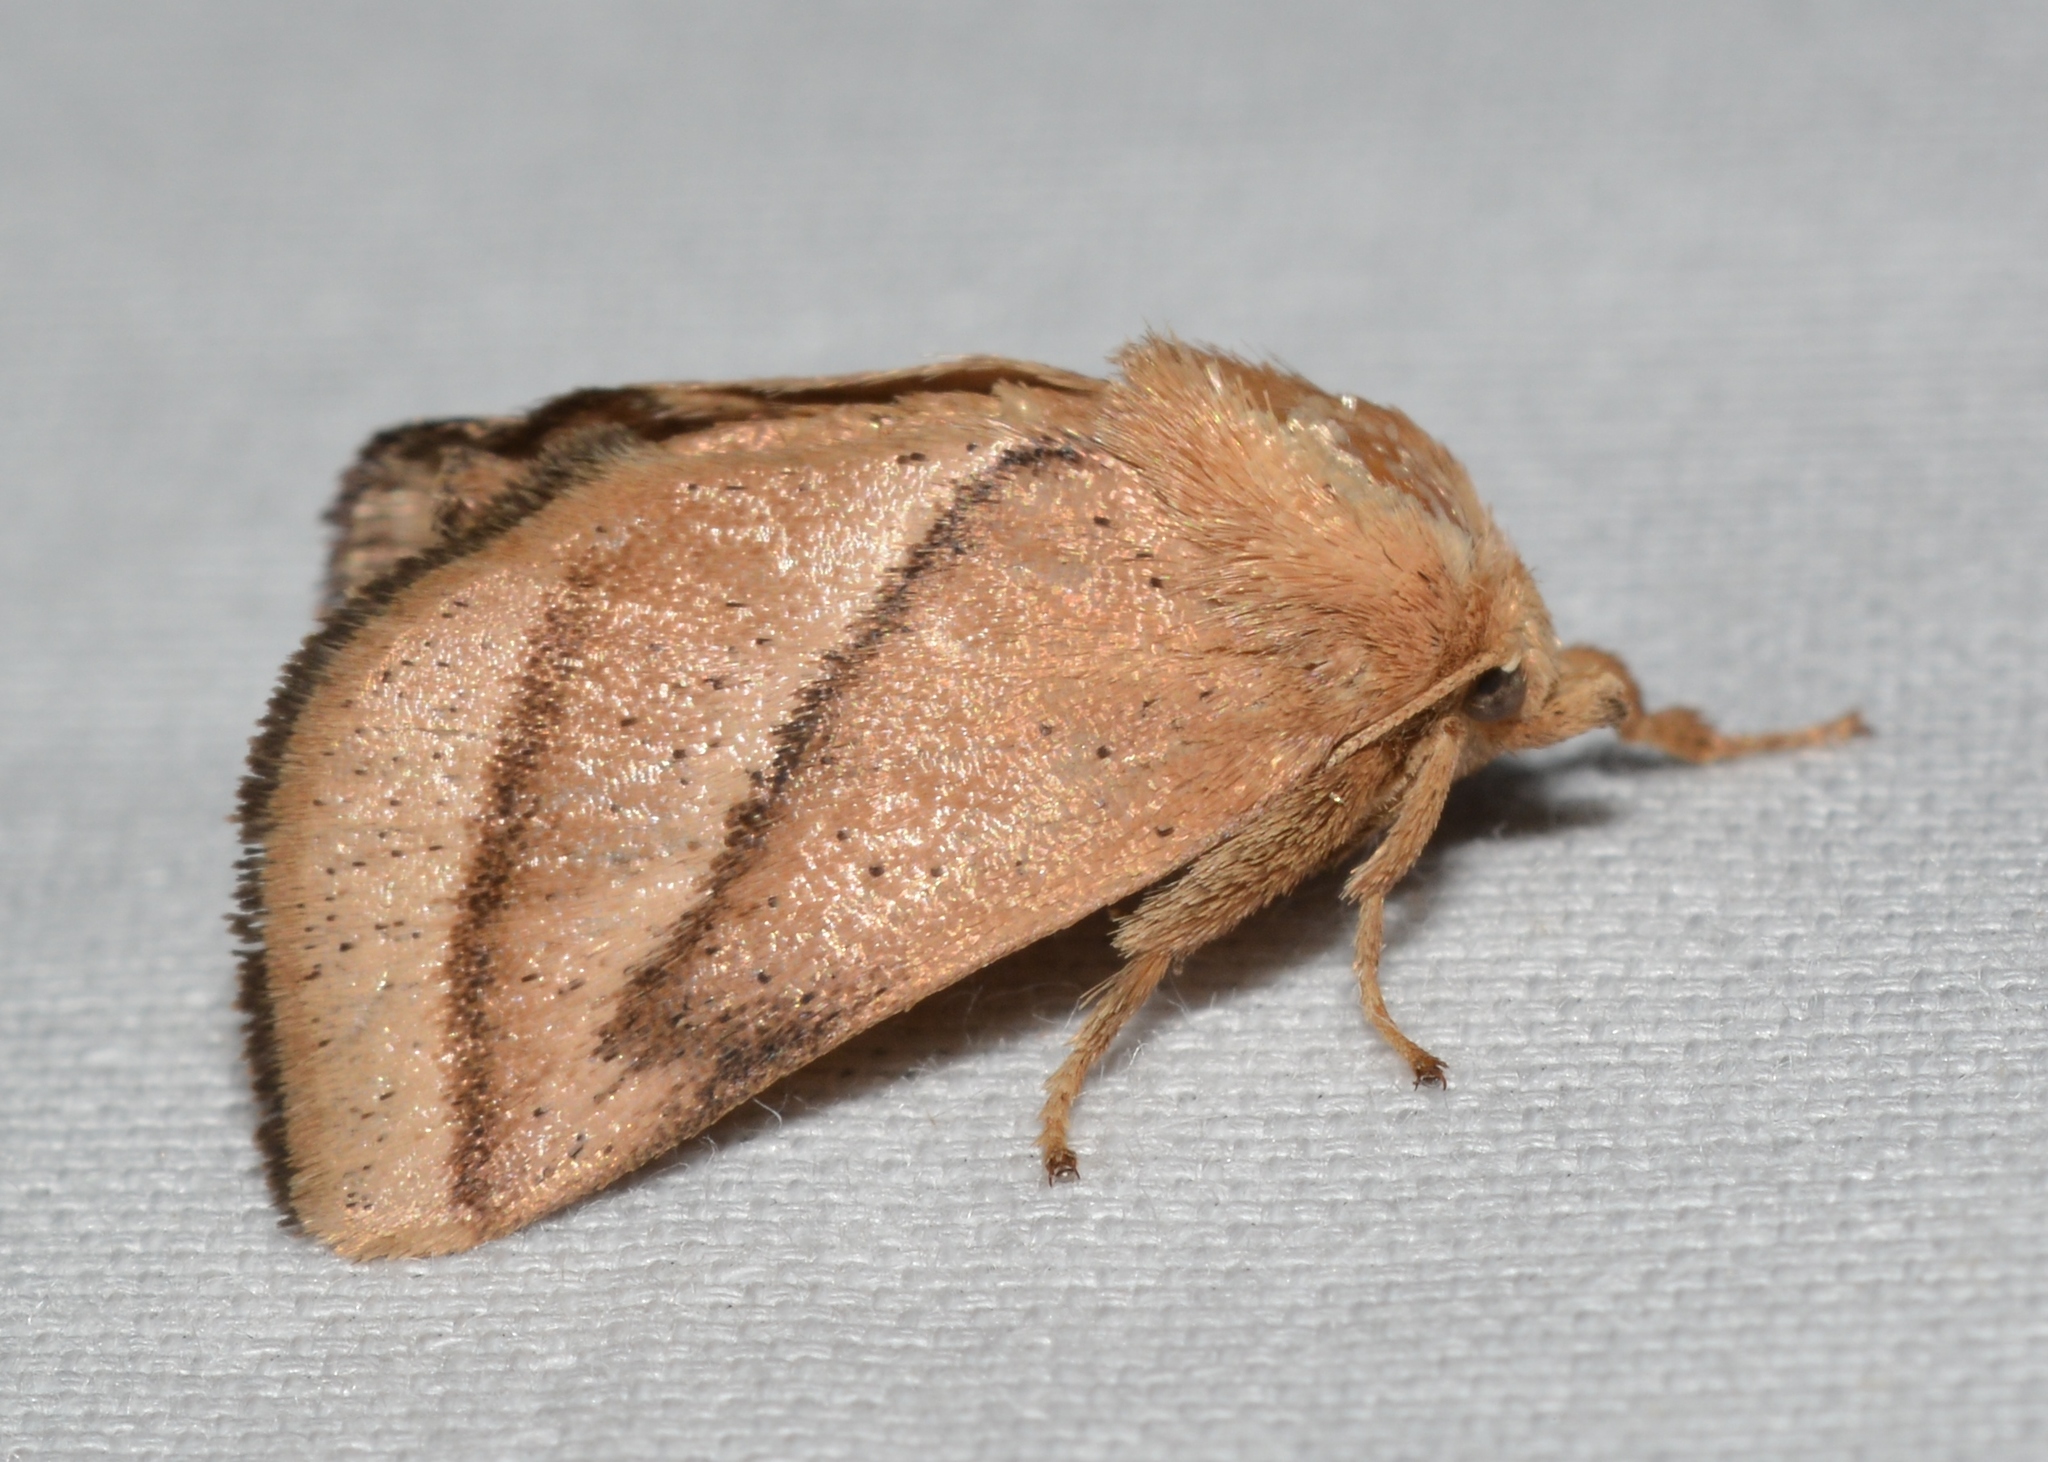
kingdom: Animalia
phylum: Arthropoda
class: Insecta
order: Lepidoptera
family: Limacodidae
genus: Natada
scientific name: Natada nasoni
